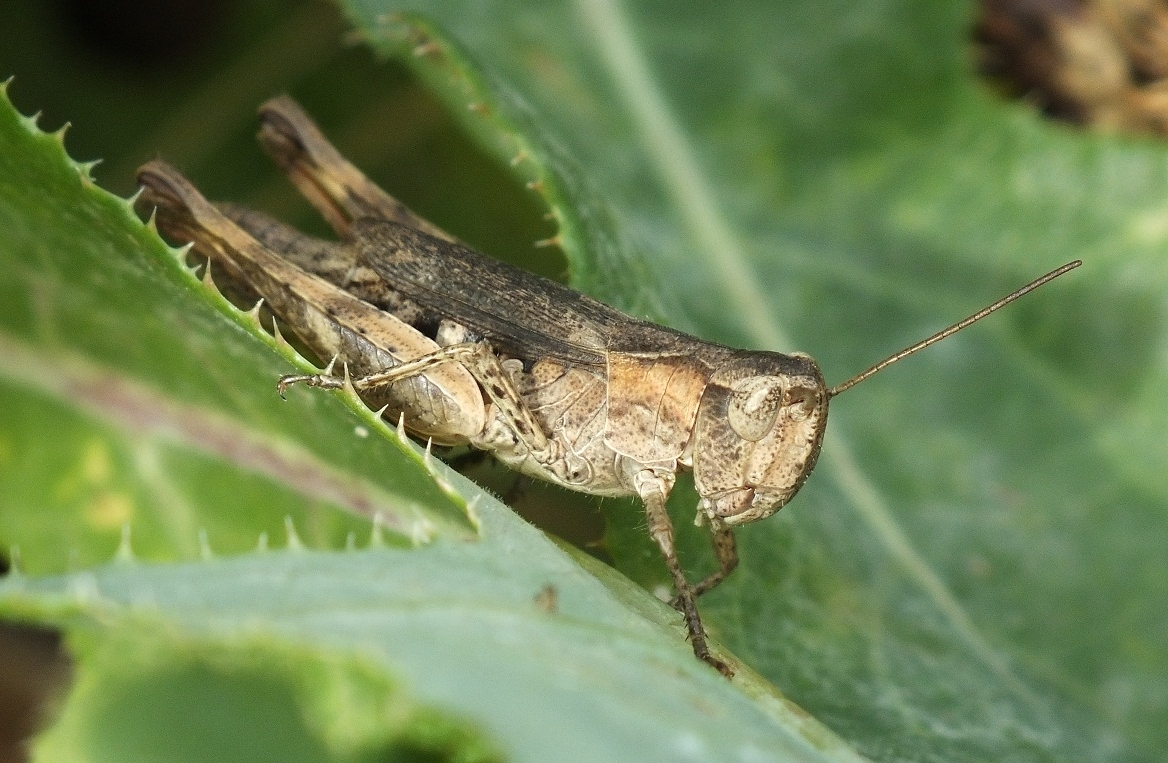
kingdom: Animalia
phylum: Arthropoda
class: Insecta
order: Orthoptera
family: Acrididae
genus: Chorthippus
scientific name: Chorthippus macrocerus
